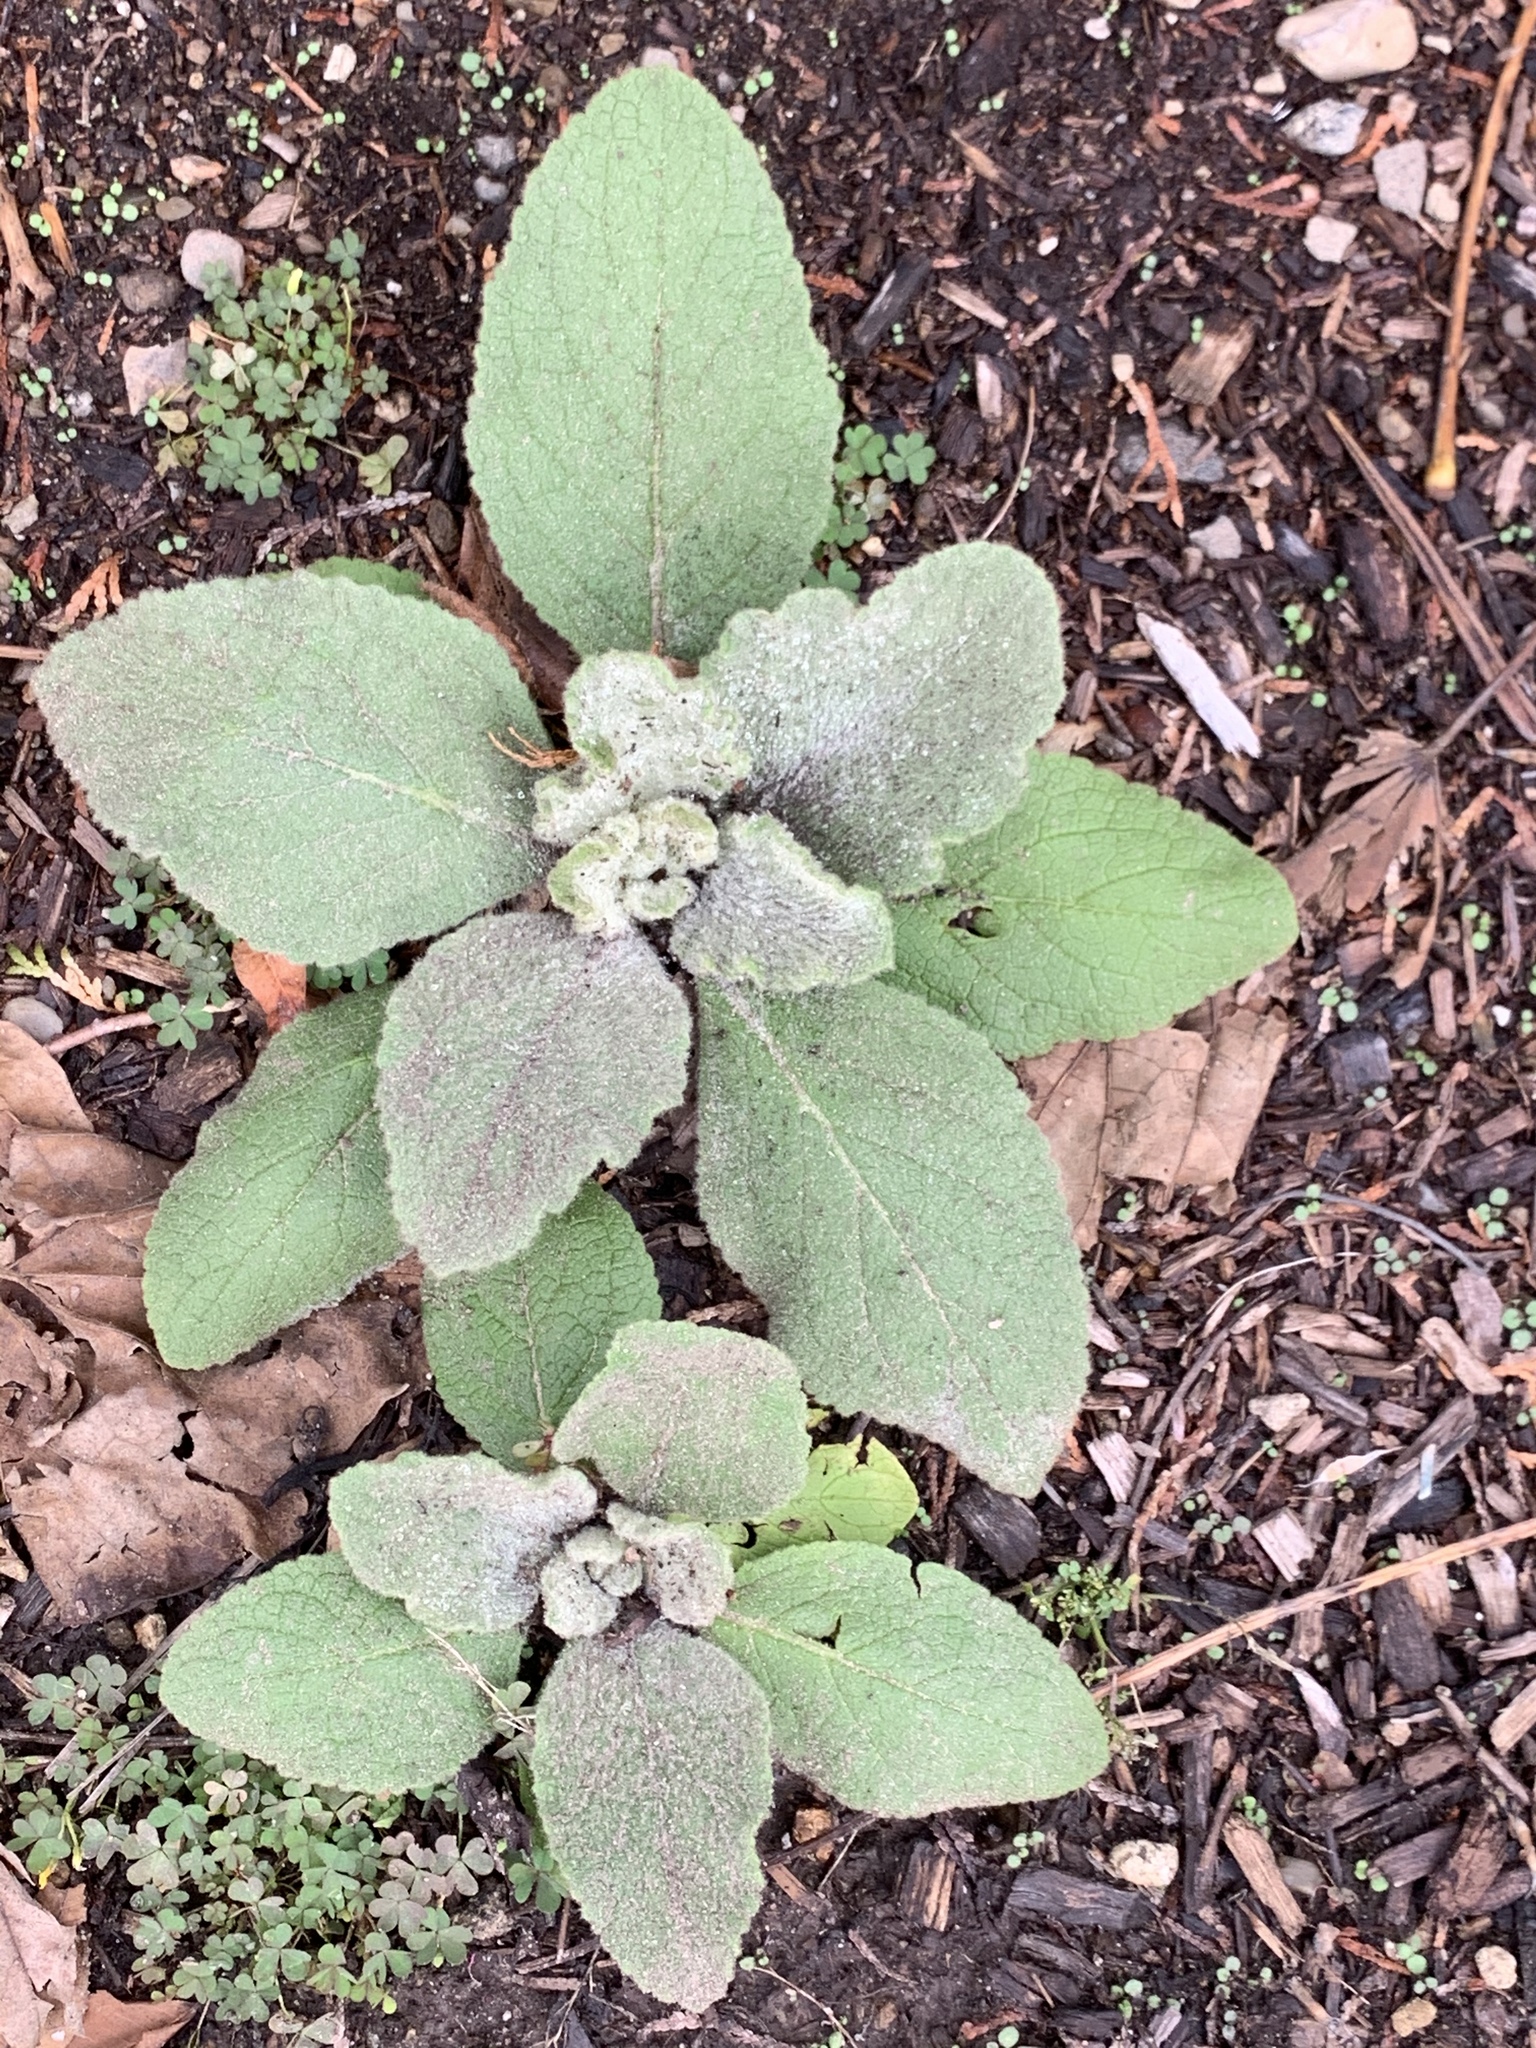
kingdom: Plantae
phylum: Tracheophyta
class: Magnoliopsida
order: Lamiales
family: Scrophulariaceae
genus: Verbascum
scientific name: Verbascum thapsus
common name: Common mullein
